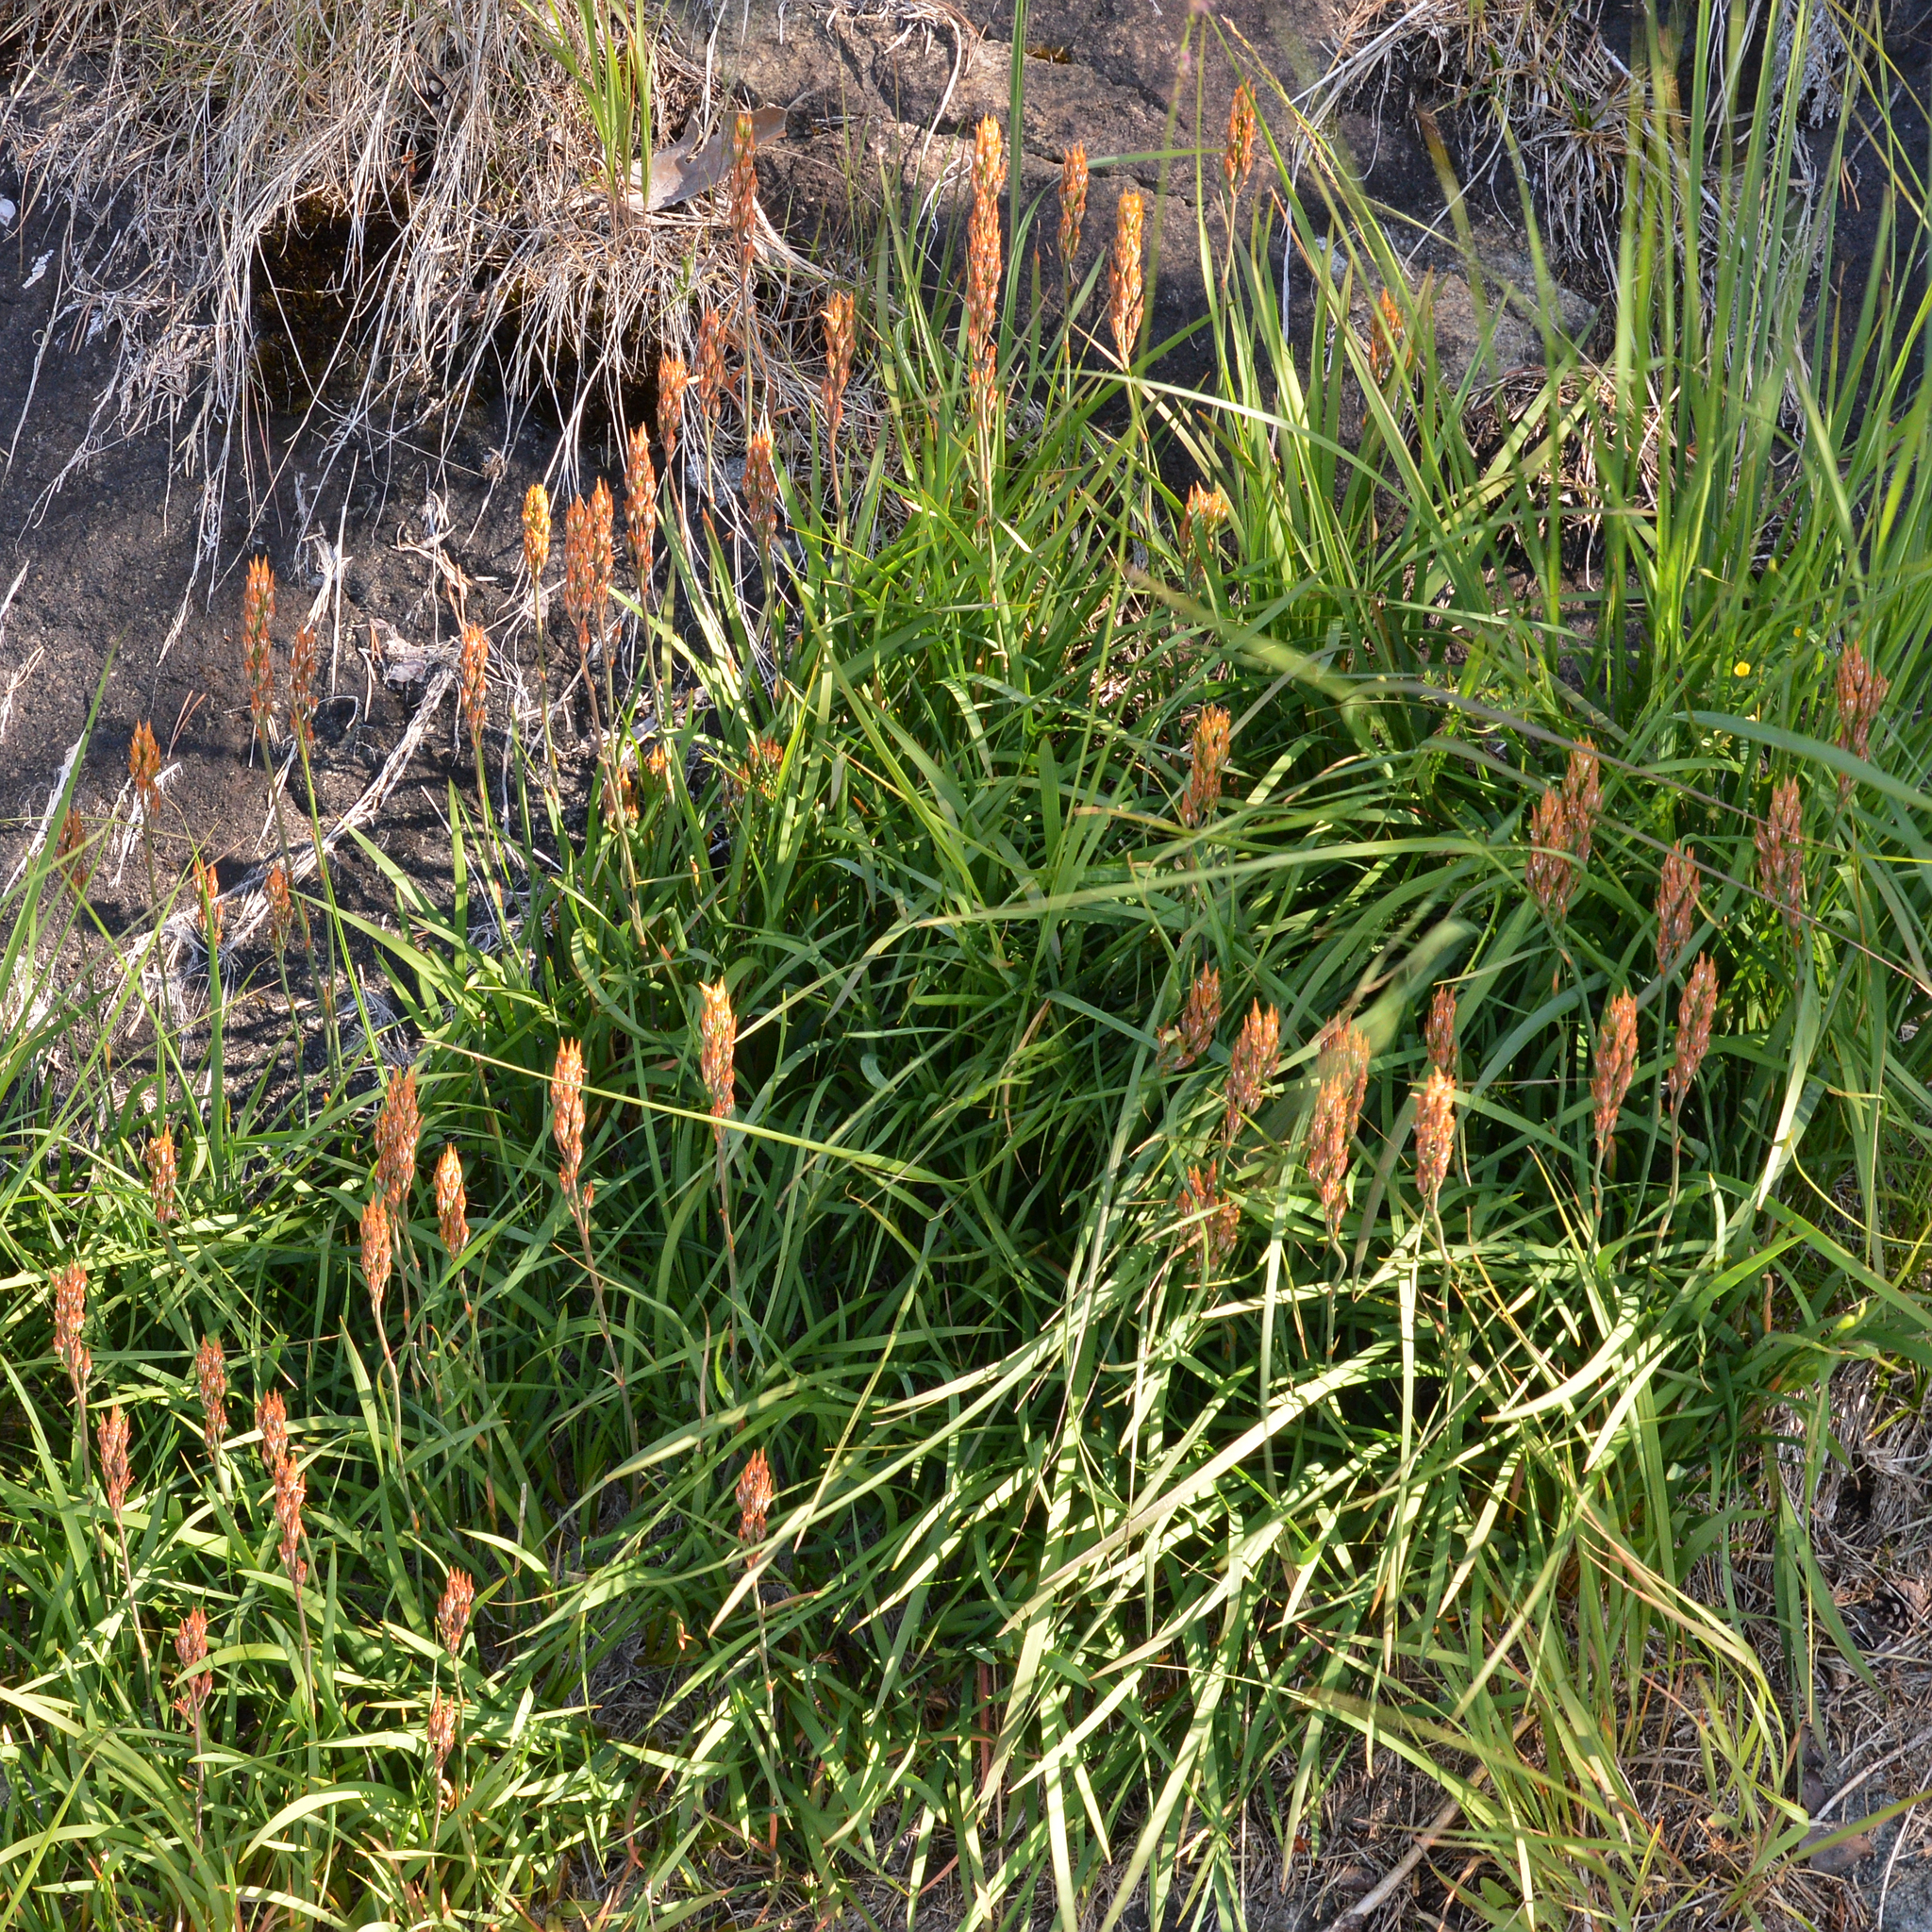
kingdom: Plantae
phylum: Tracheophyta
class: Liliopsida
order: Dioscoreales
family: Nartheciaceae
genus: Narthecium
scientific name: Narthecium ossifragum
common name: Bog asphodel
